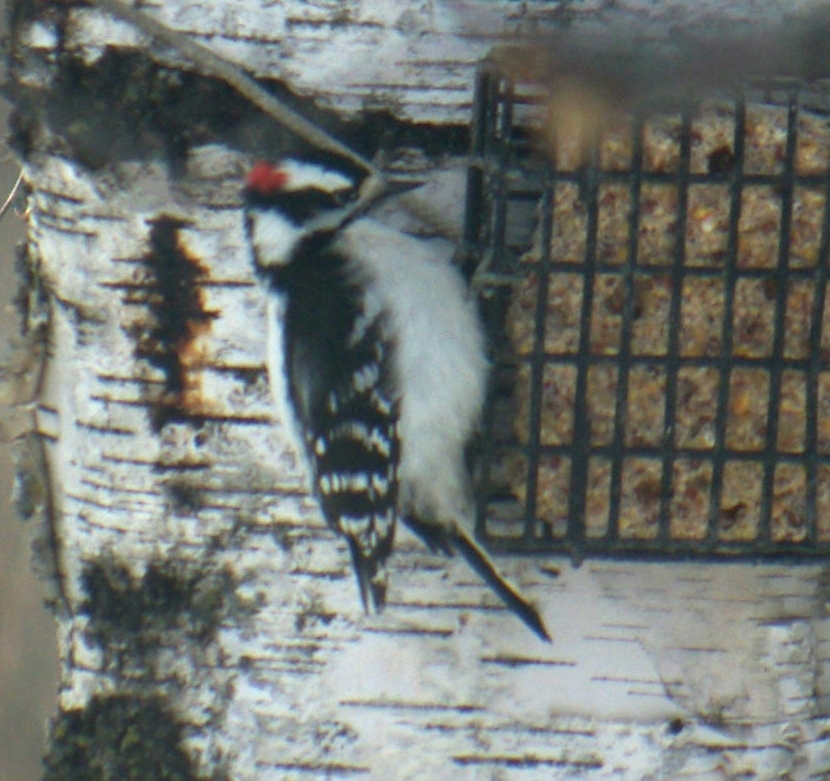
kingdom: Animalia
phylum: Chordata
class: Aves
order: Piciformes
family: Picidae
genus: Dryobates
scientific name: Dryobates pubescens
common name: Downy woodpecker
